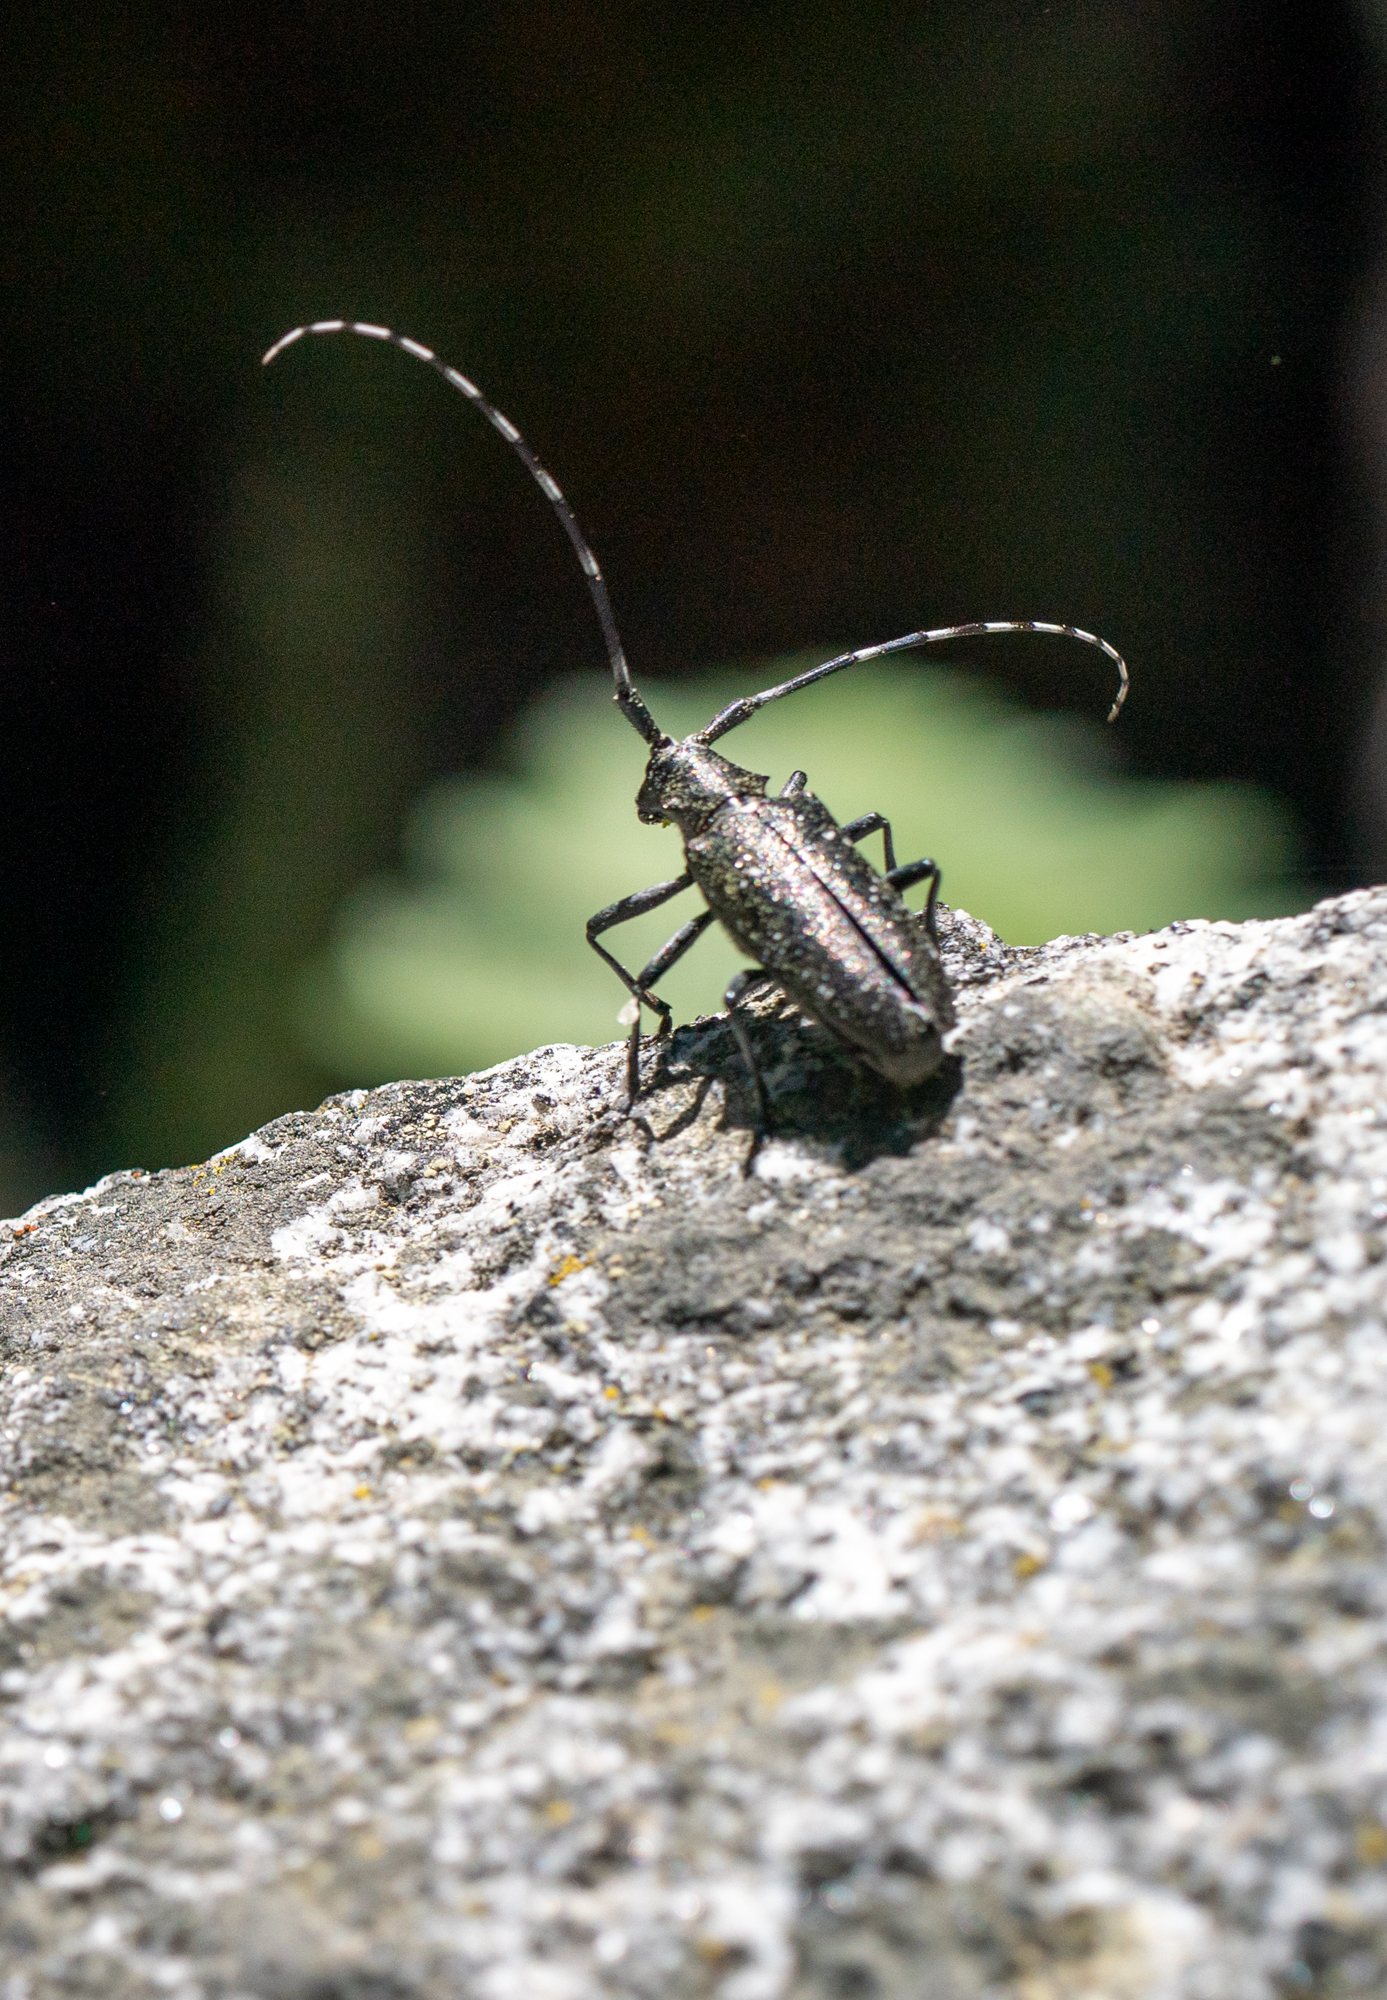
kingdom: Animalia
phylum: Arthropoda
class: Insecta
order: Coleoptera
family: Cerambycidae
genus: Monochamus
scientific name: Monochamus scutellatus
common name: White-spotted sawyer beetle
